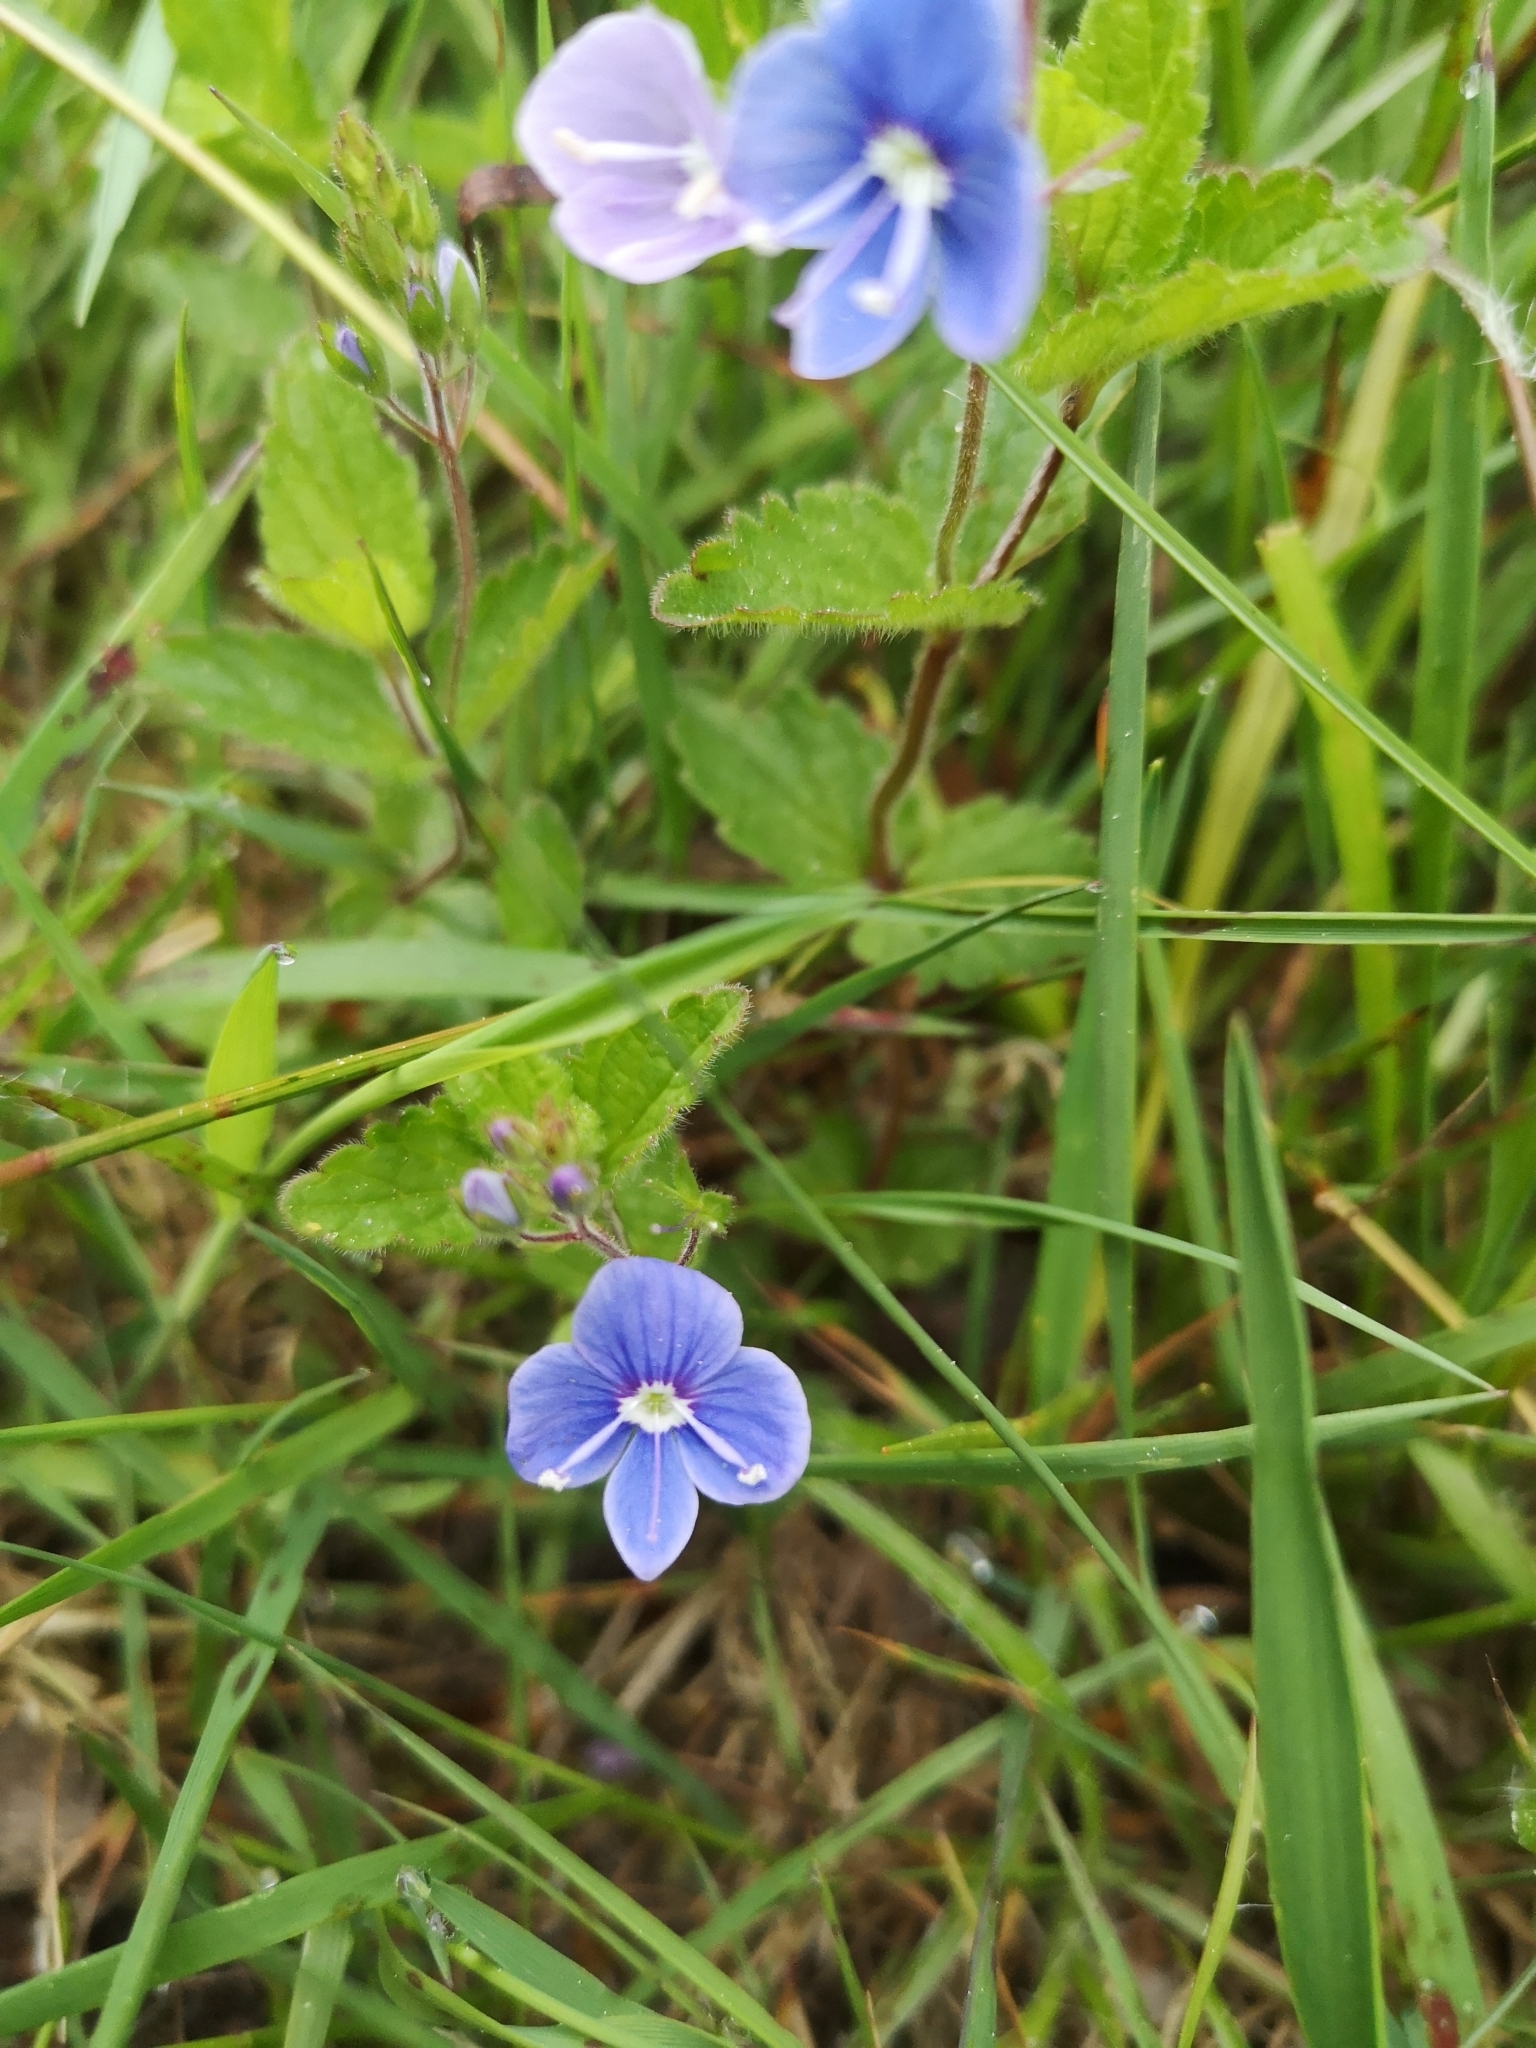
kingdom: Plantae
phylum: Tracheophyta
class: Magnoliopsida
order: Lamiales
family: Plantaginaceae
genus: Veronica
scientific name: Veronica chamaedrys
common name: Germander speedwell
